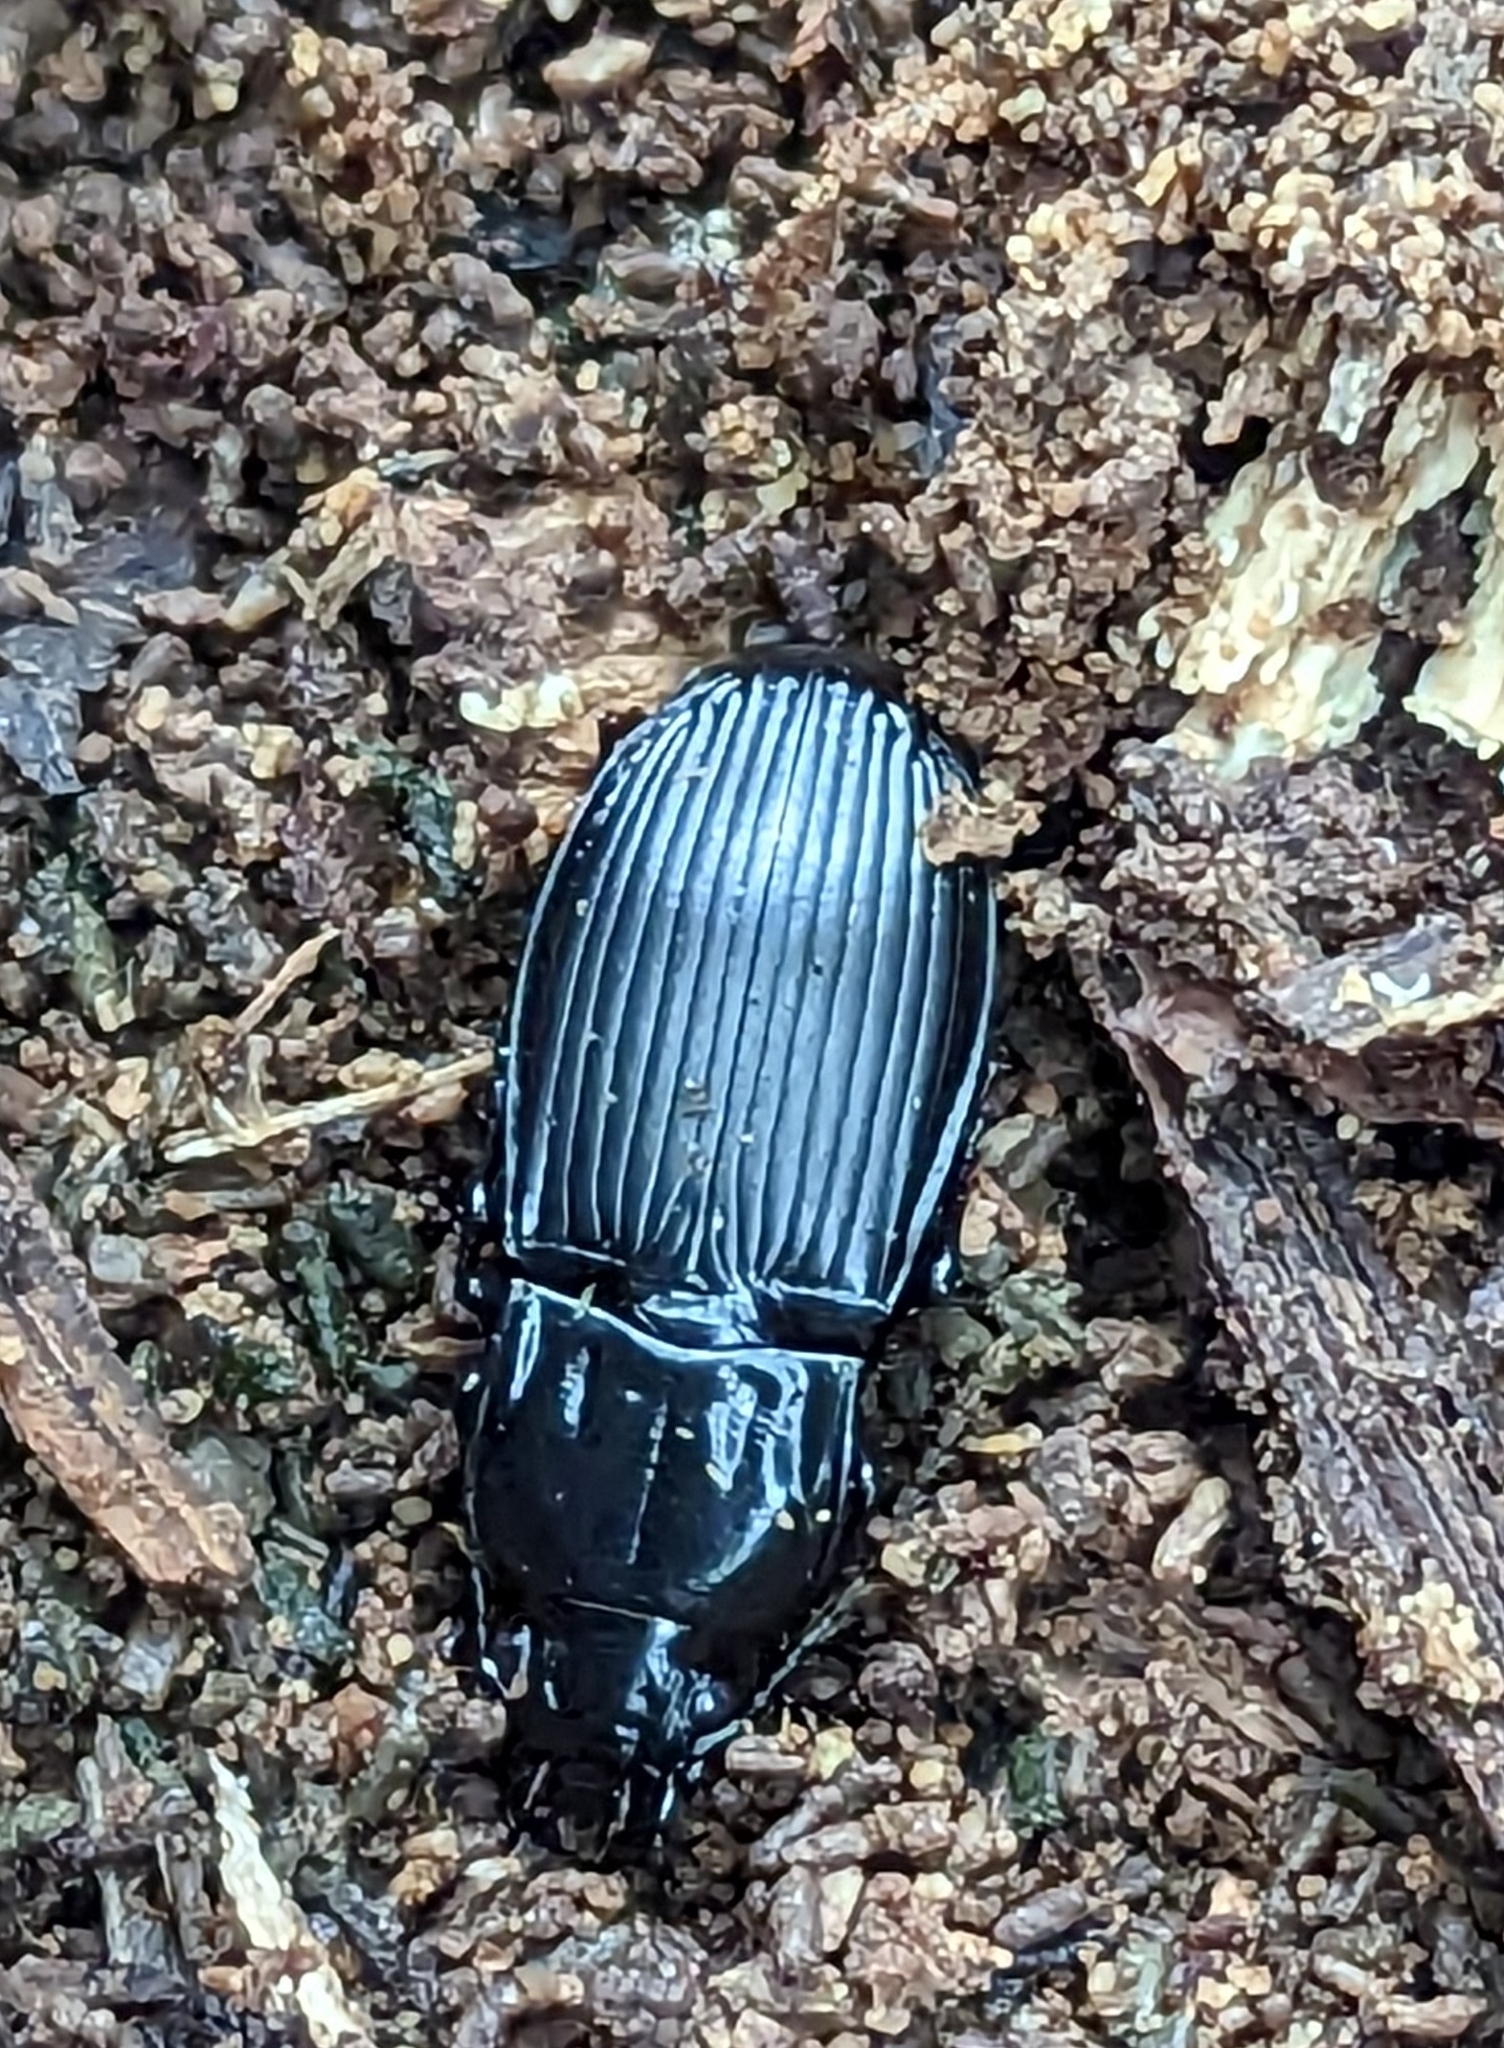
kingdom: Animalia
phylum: Arthropoda
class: Insecta
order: Coleoptera
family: Carabidae
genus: Abax
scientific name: Abax parallelepipedus
